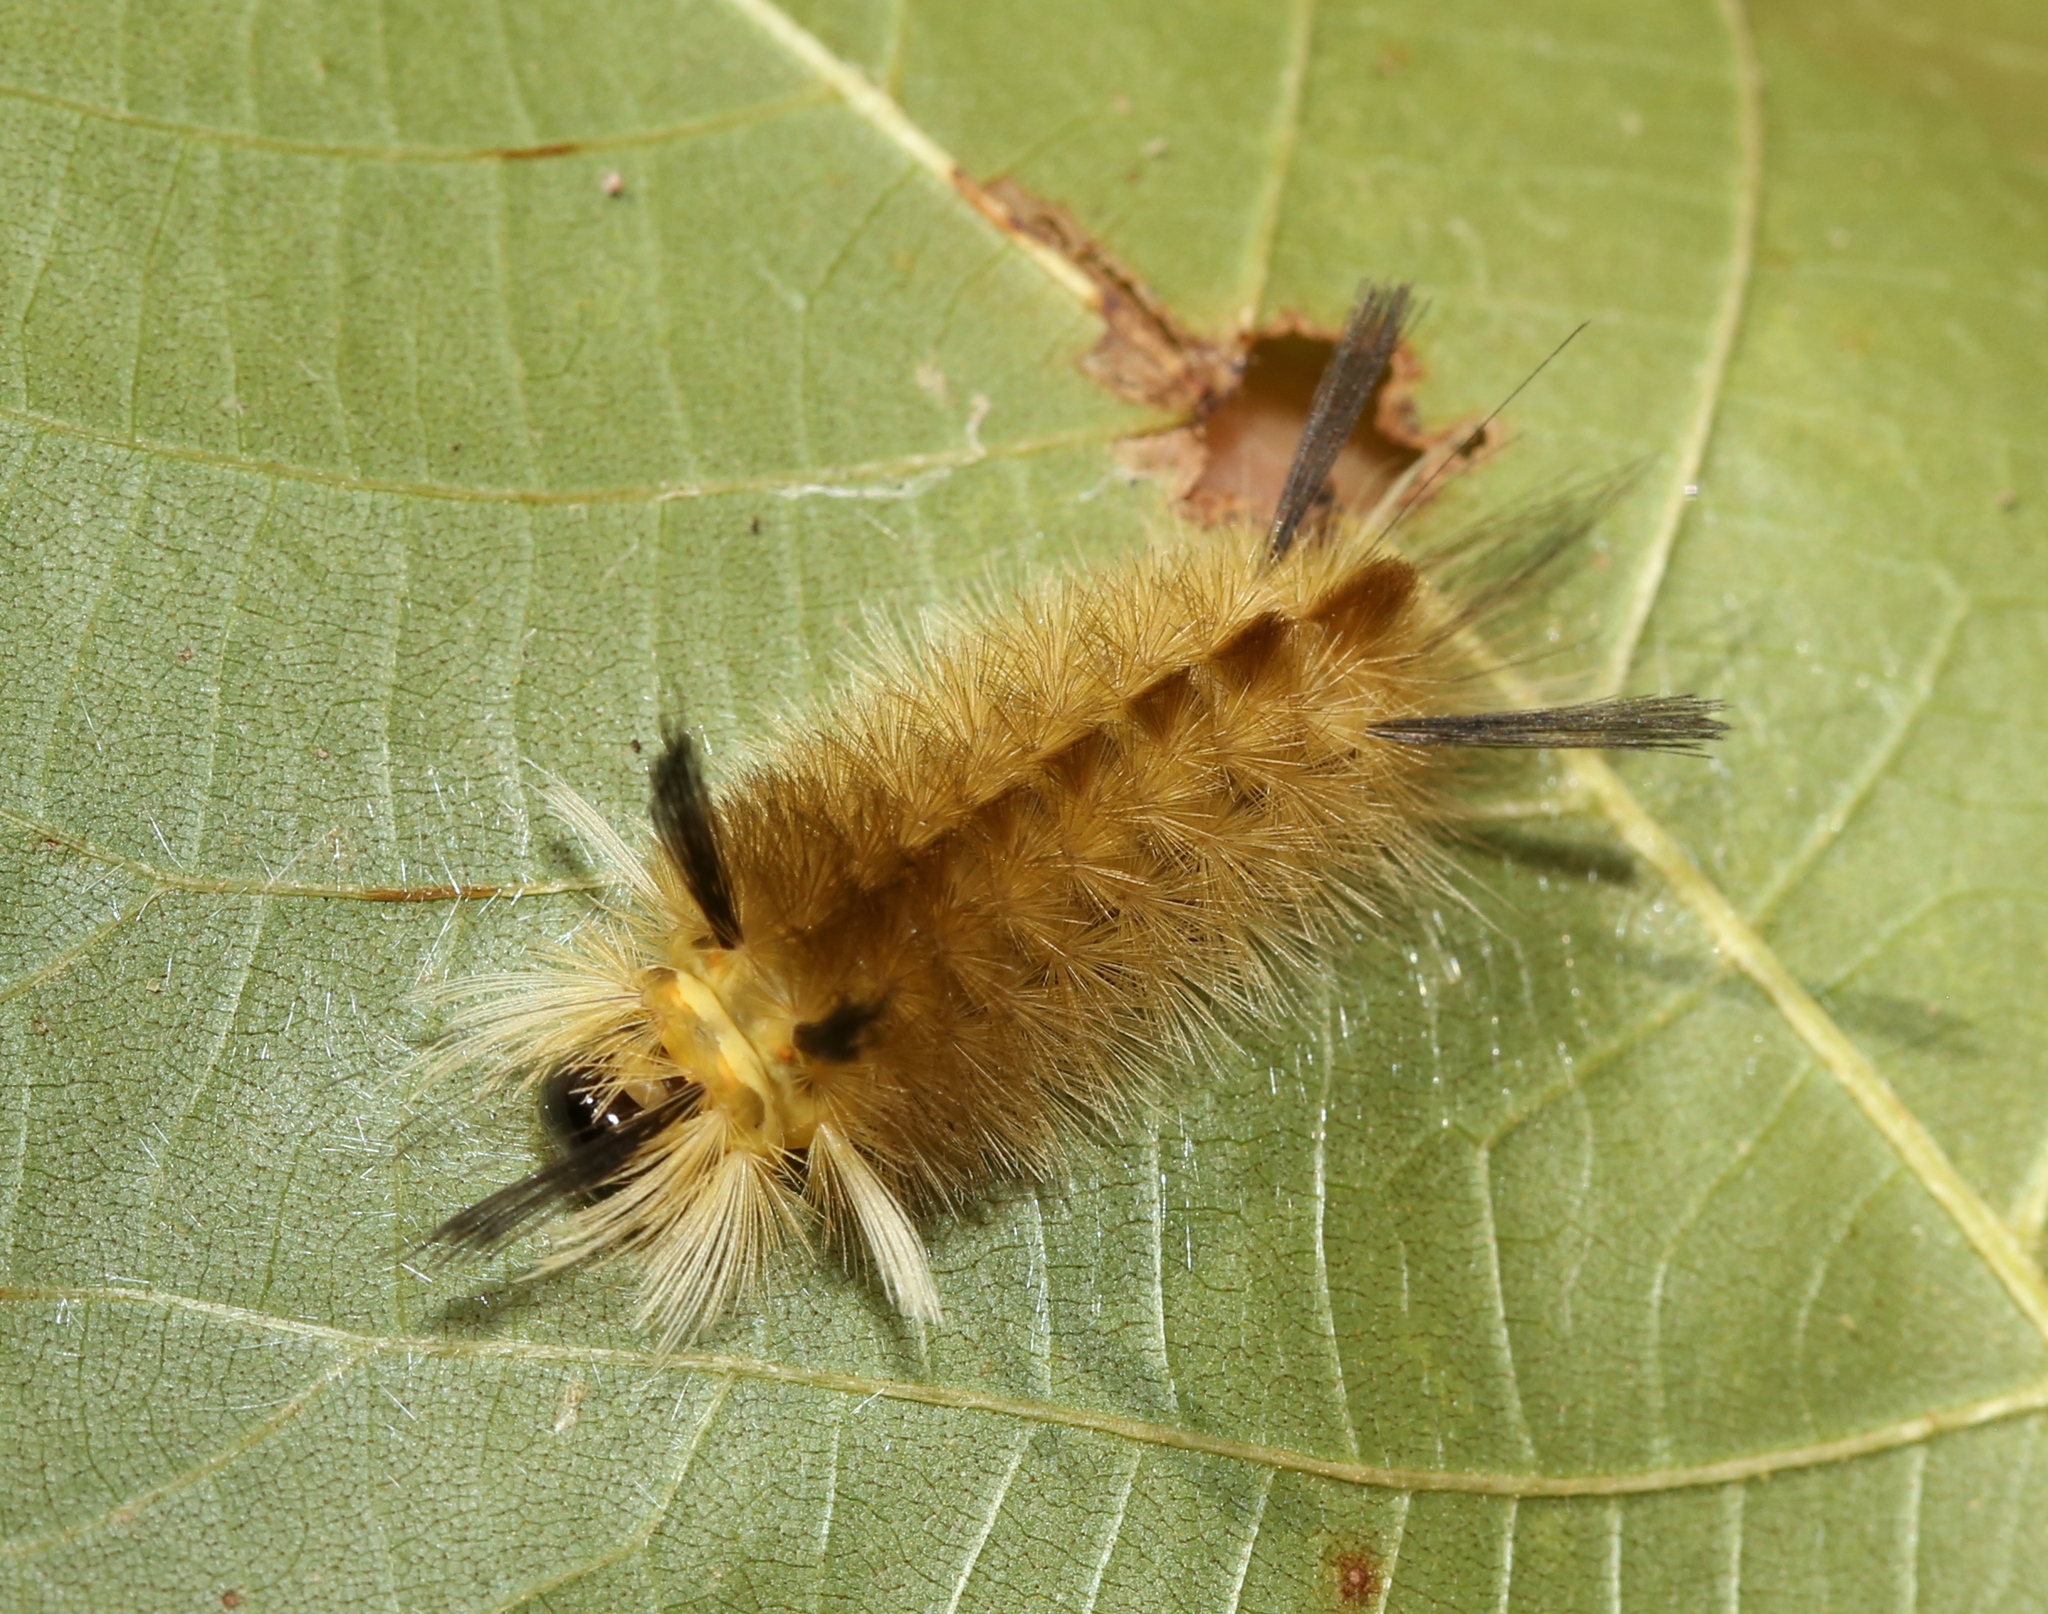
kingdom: Animalia
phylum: Arthropoda
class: Insecta
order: Lepidoptera
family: Erebidae
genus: Halysidota
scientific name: Halysidota tessellaris
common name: Banded tussock moth
